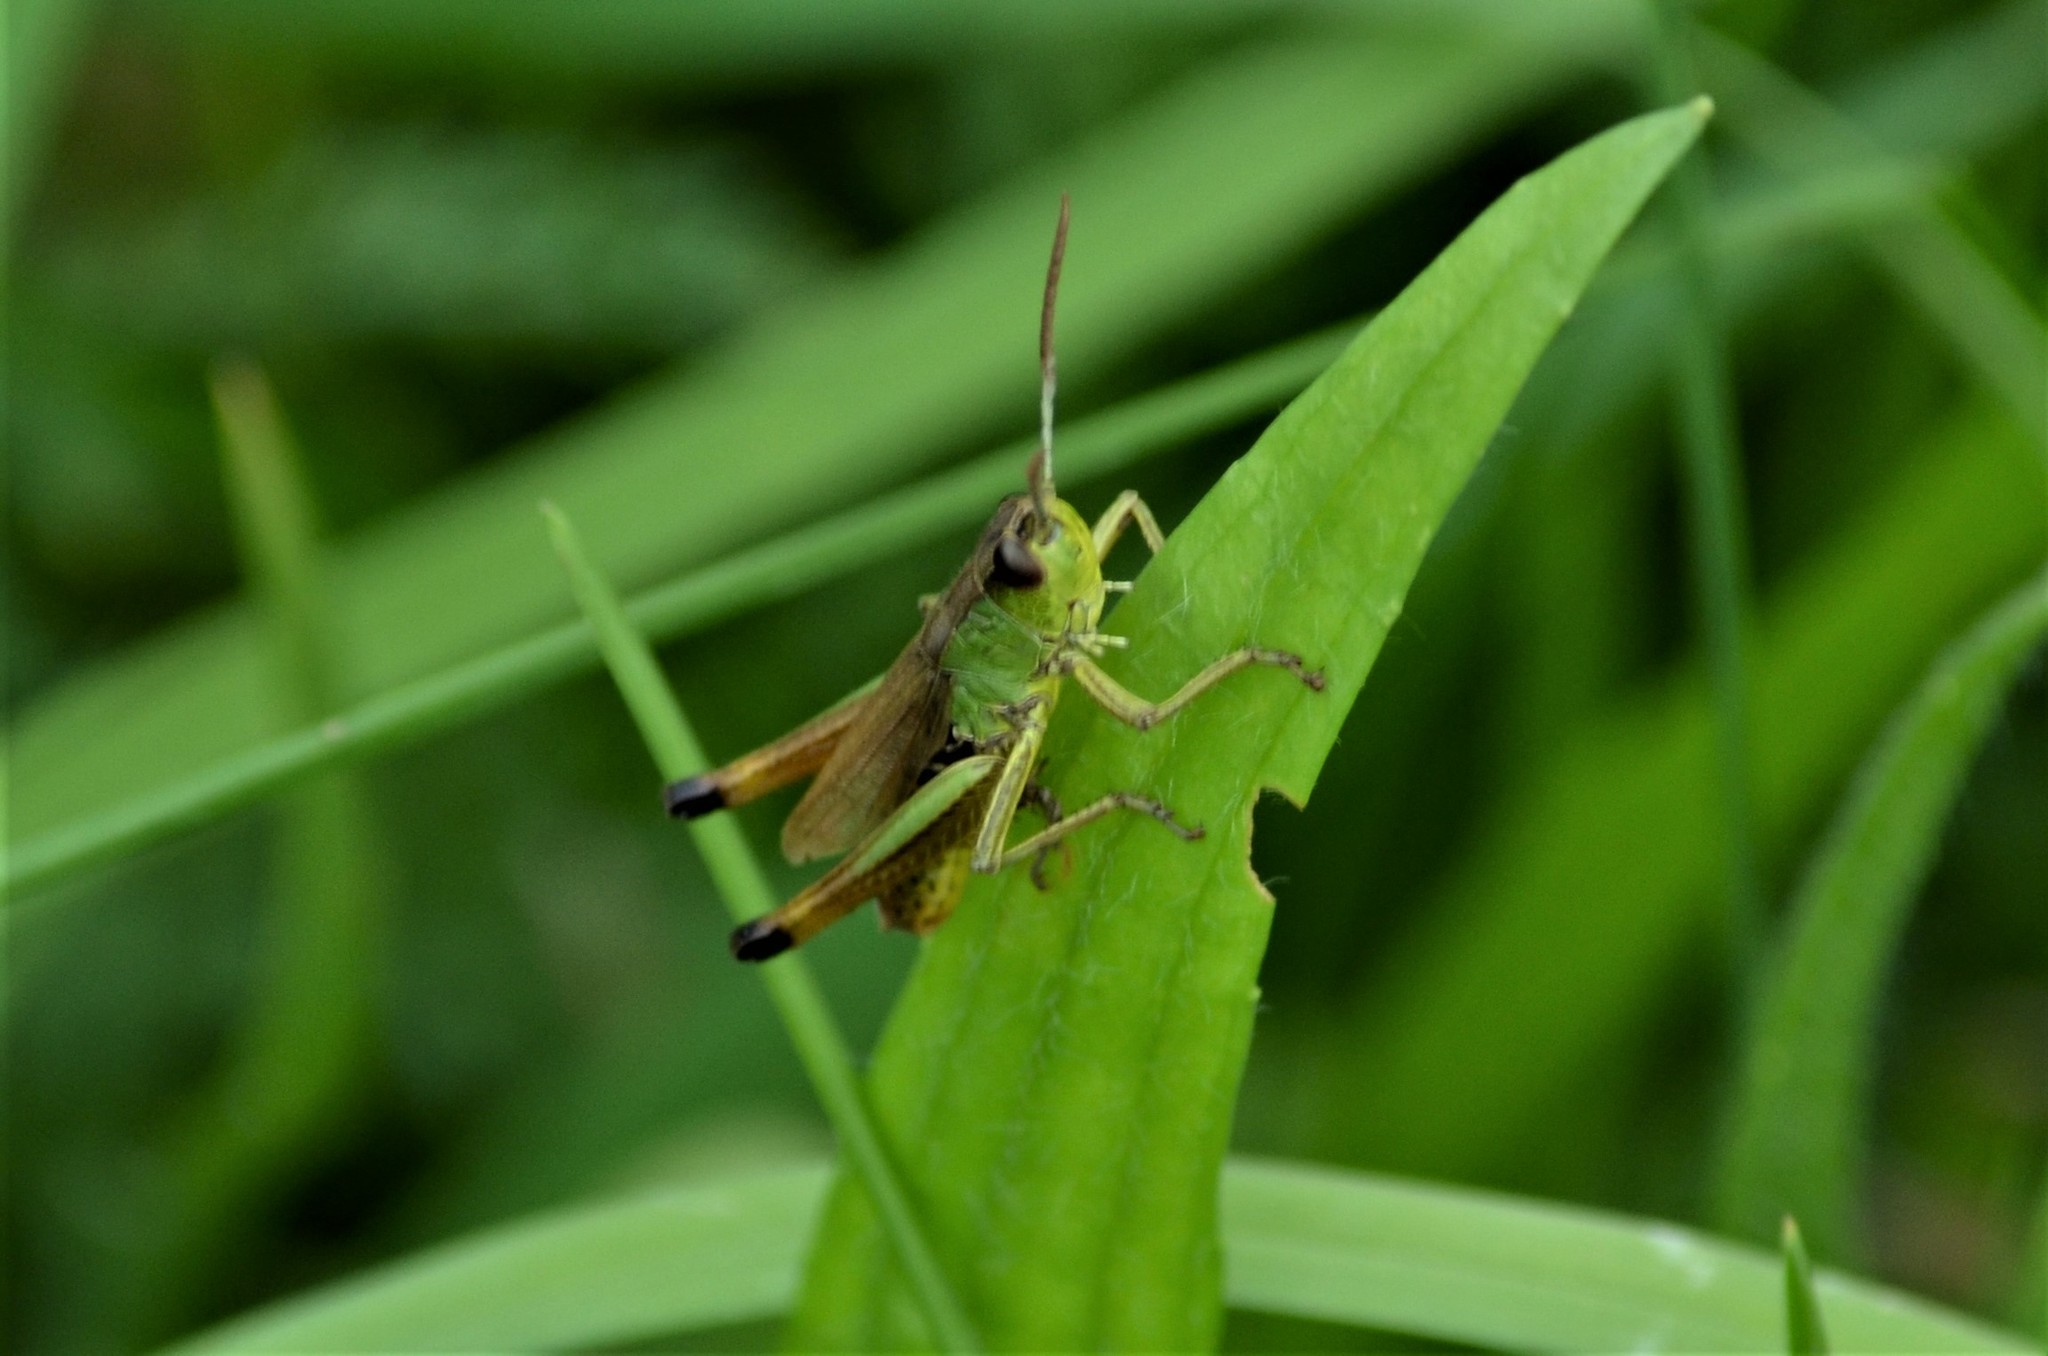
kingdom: Animalia
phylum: Arthropoda
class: Insecta
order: Orthoptera
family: Acrididae
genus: Pseudochorthippus
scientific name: Pseudochorthippus parallelus
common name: Meadow grasshopper
